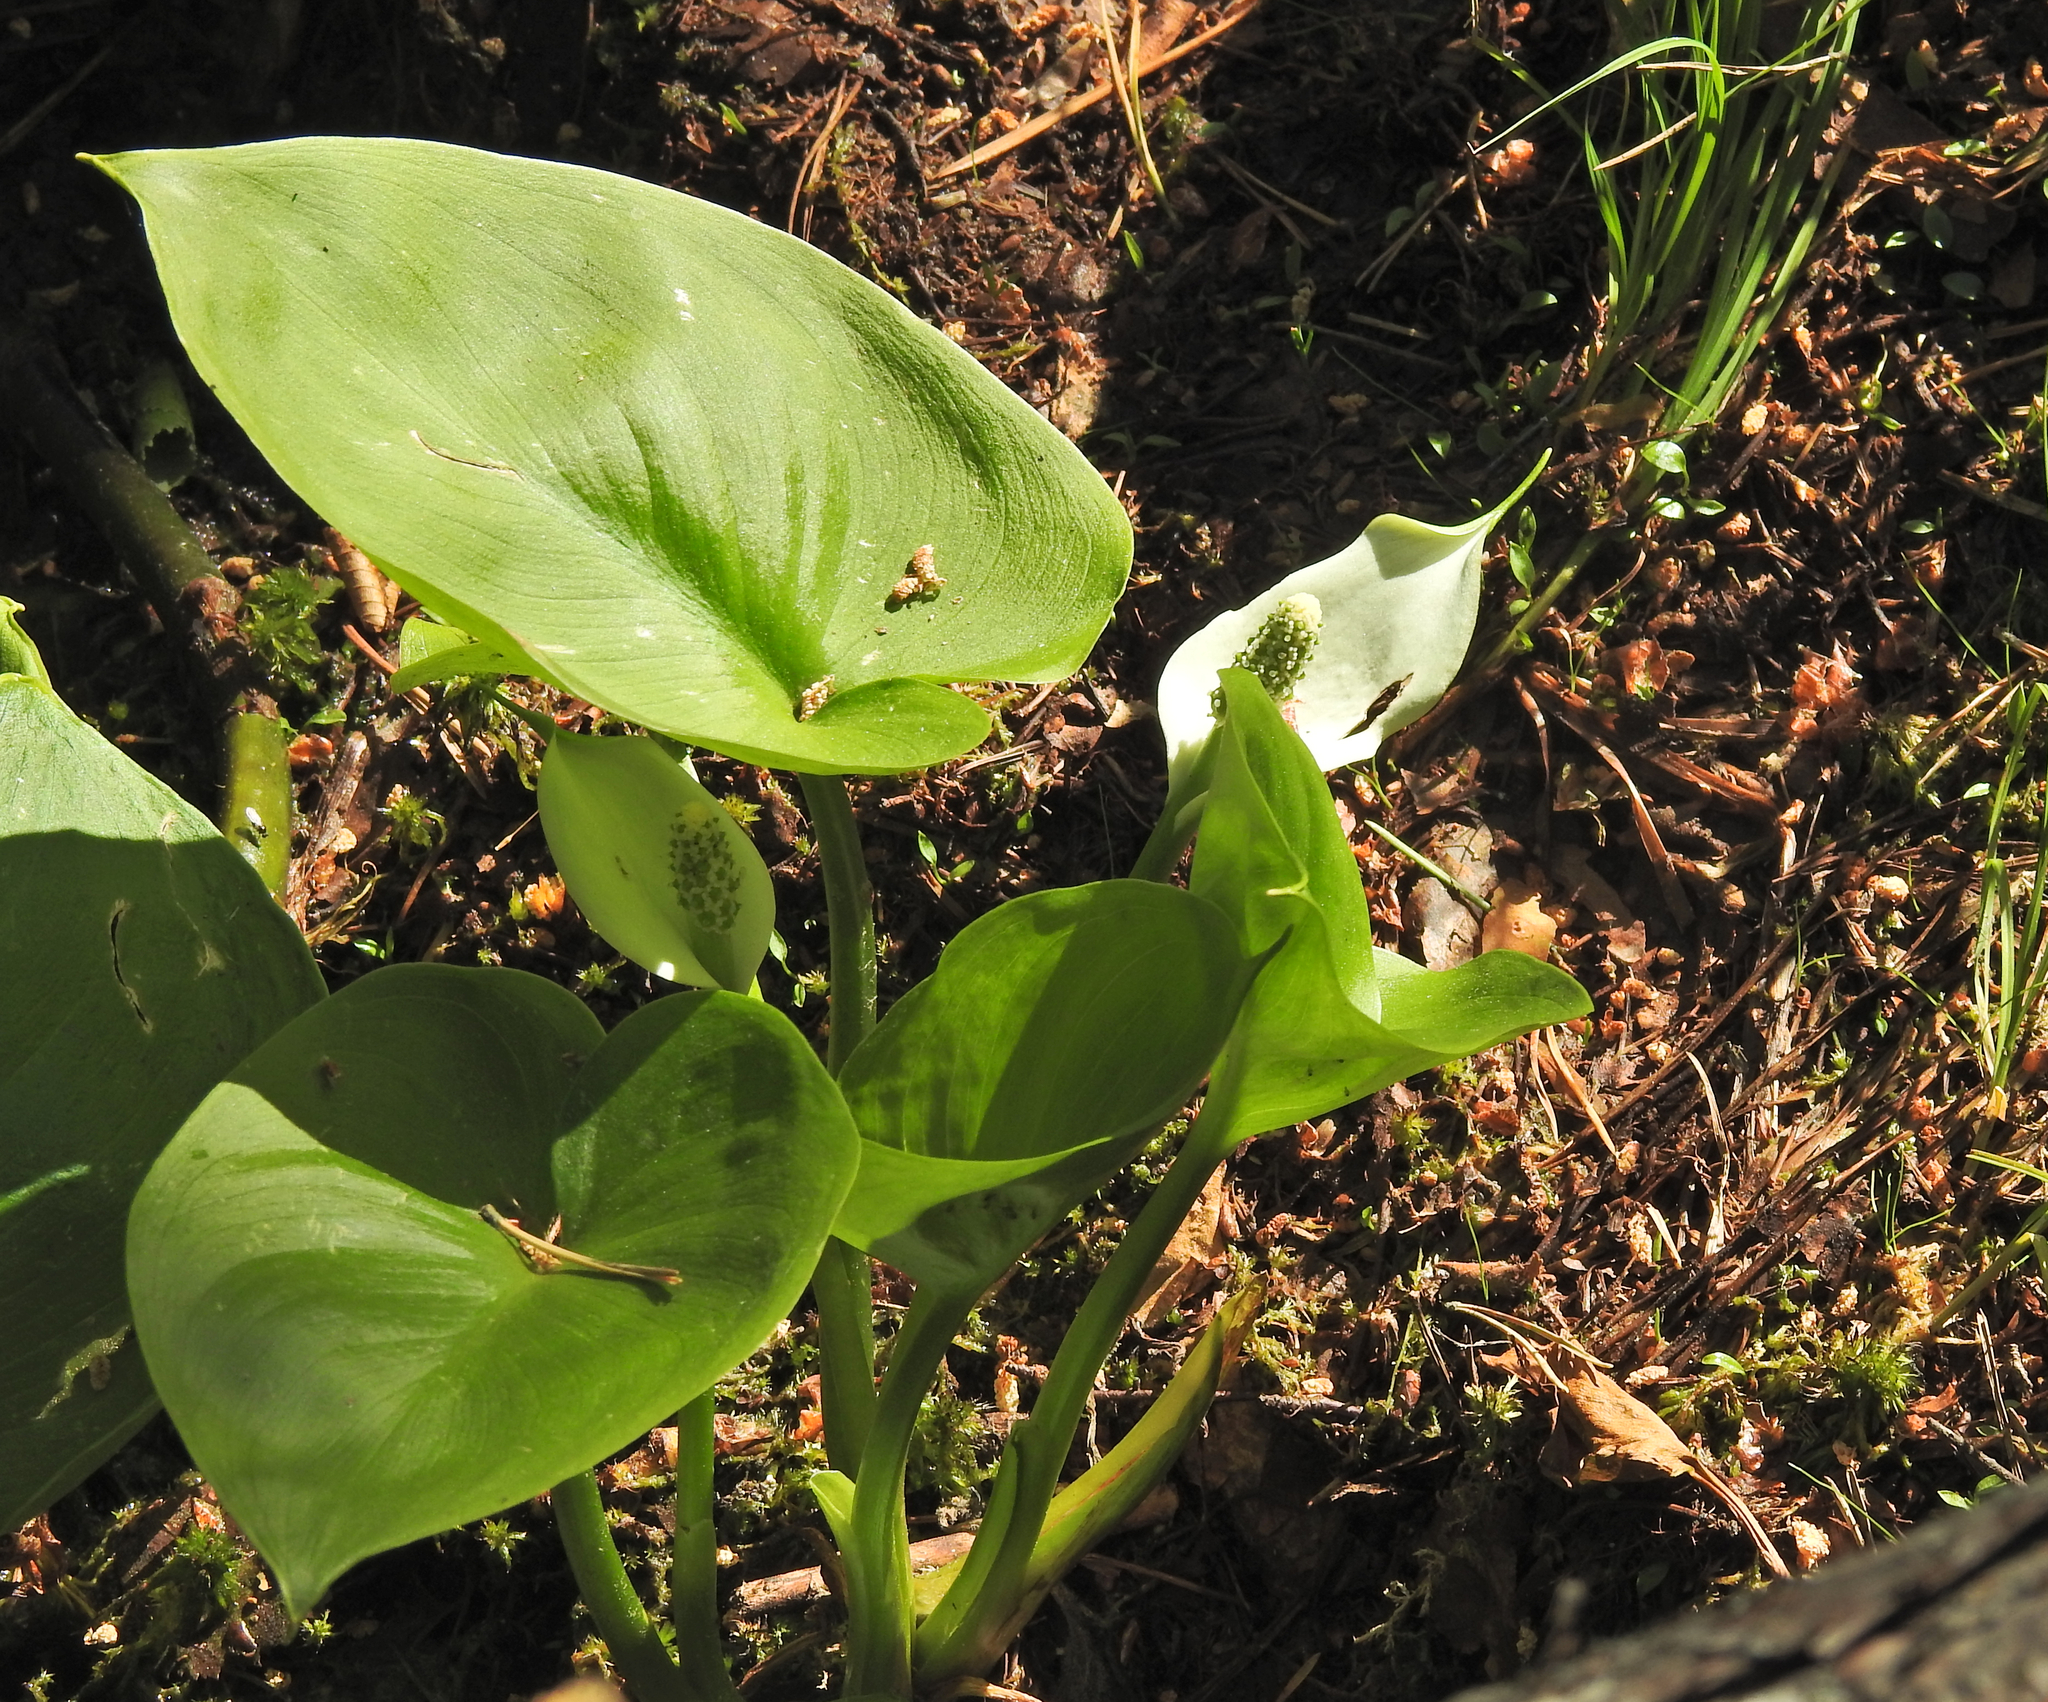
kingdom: Plantae
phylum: Tracheophyta
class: Liliopsida
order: Alismatales
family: Araceae
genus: Calla
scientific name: Calla palustris
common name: Bog arum
